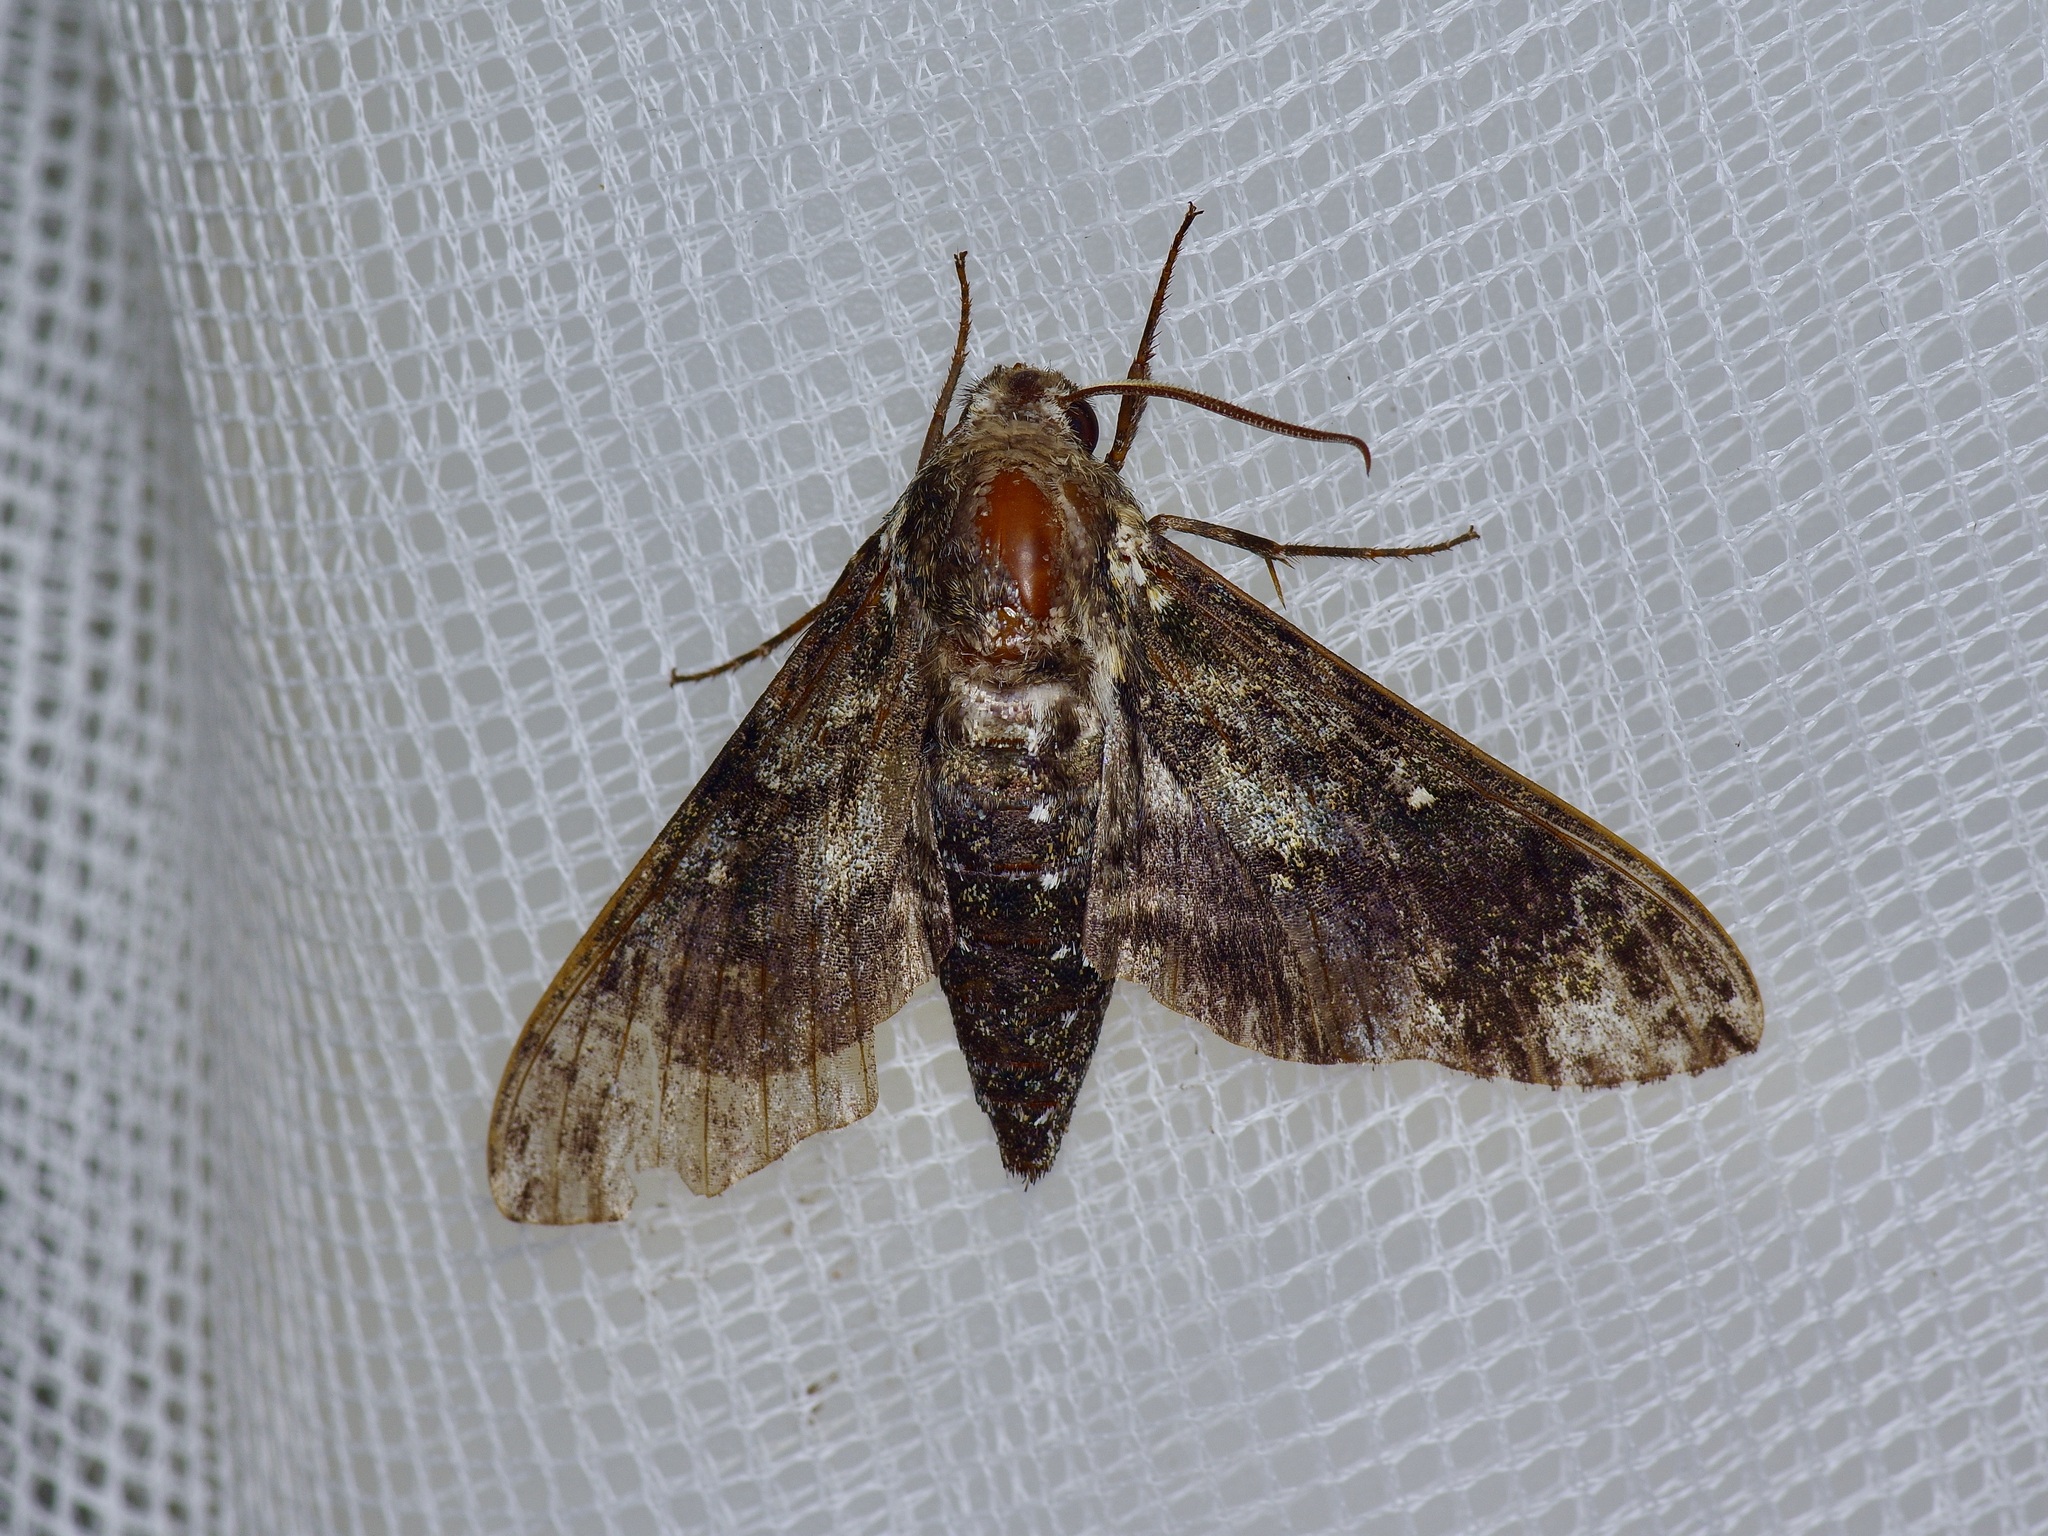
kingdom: Animalia
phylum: Arthropoda
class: Insecta
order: Lepidoptera
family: Sphingidae
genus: Dolba
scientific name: Dolba hyloeus
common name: Pawpaw sphinx
